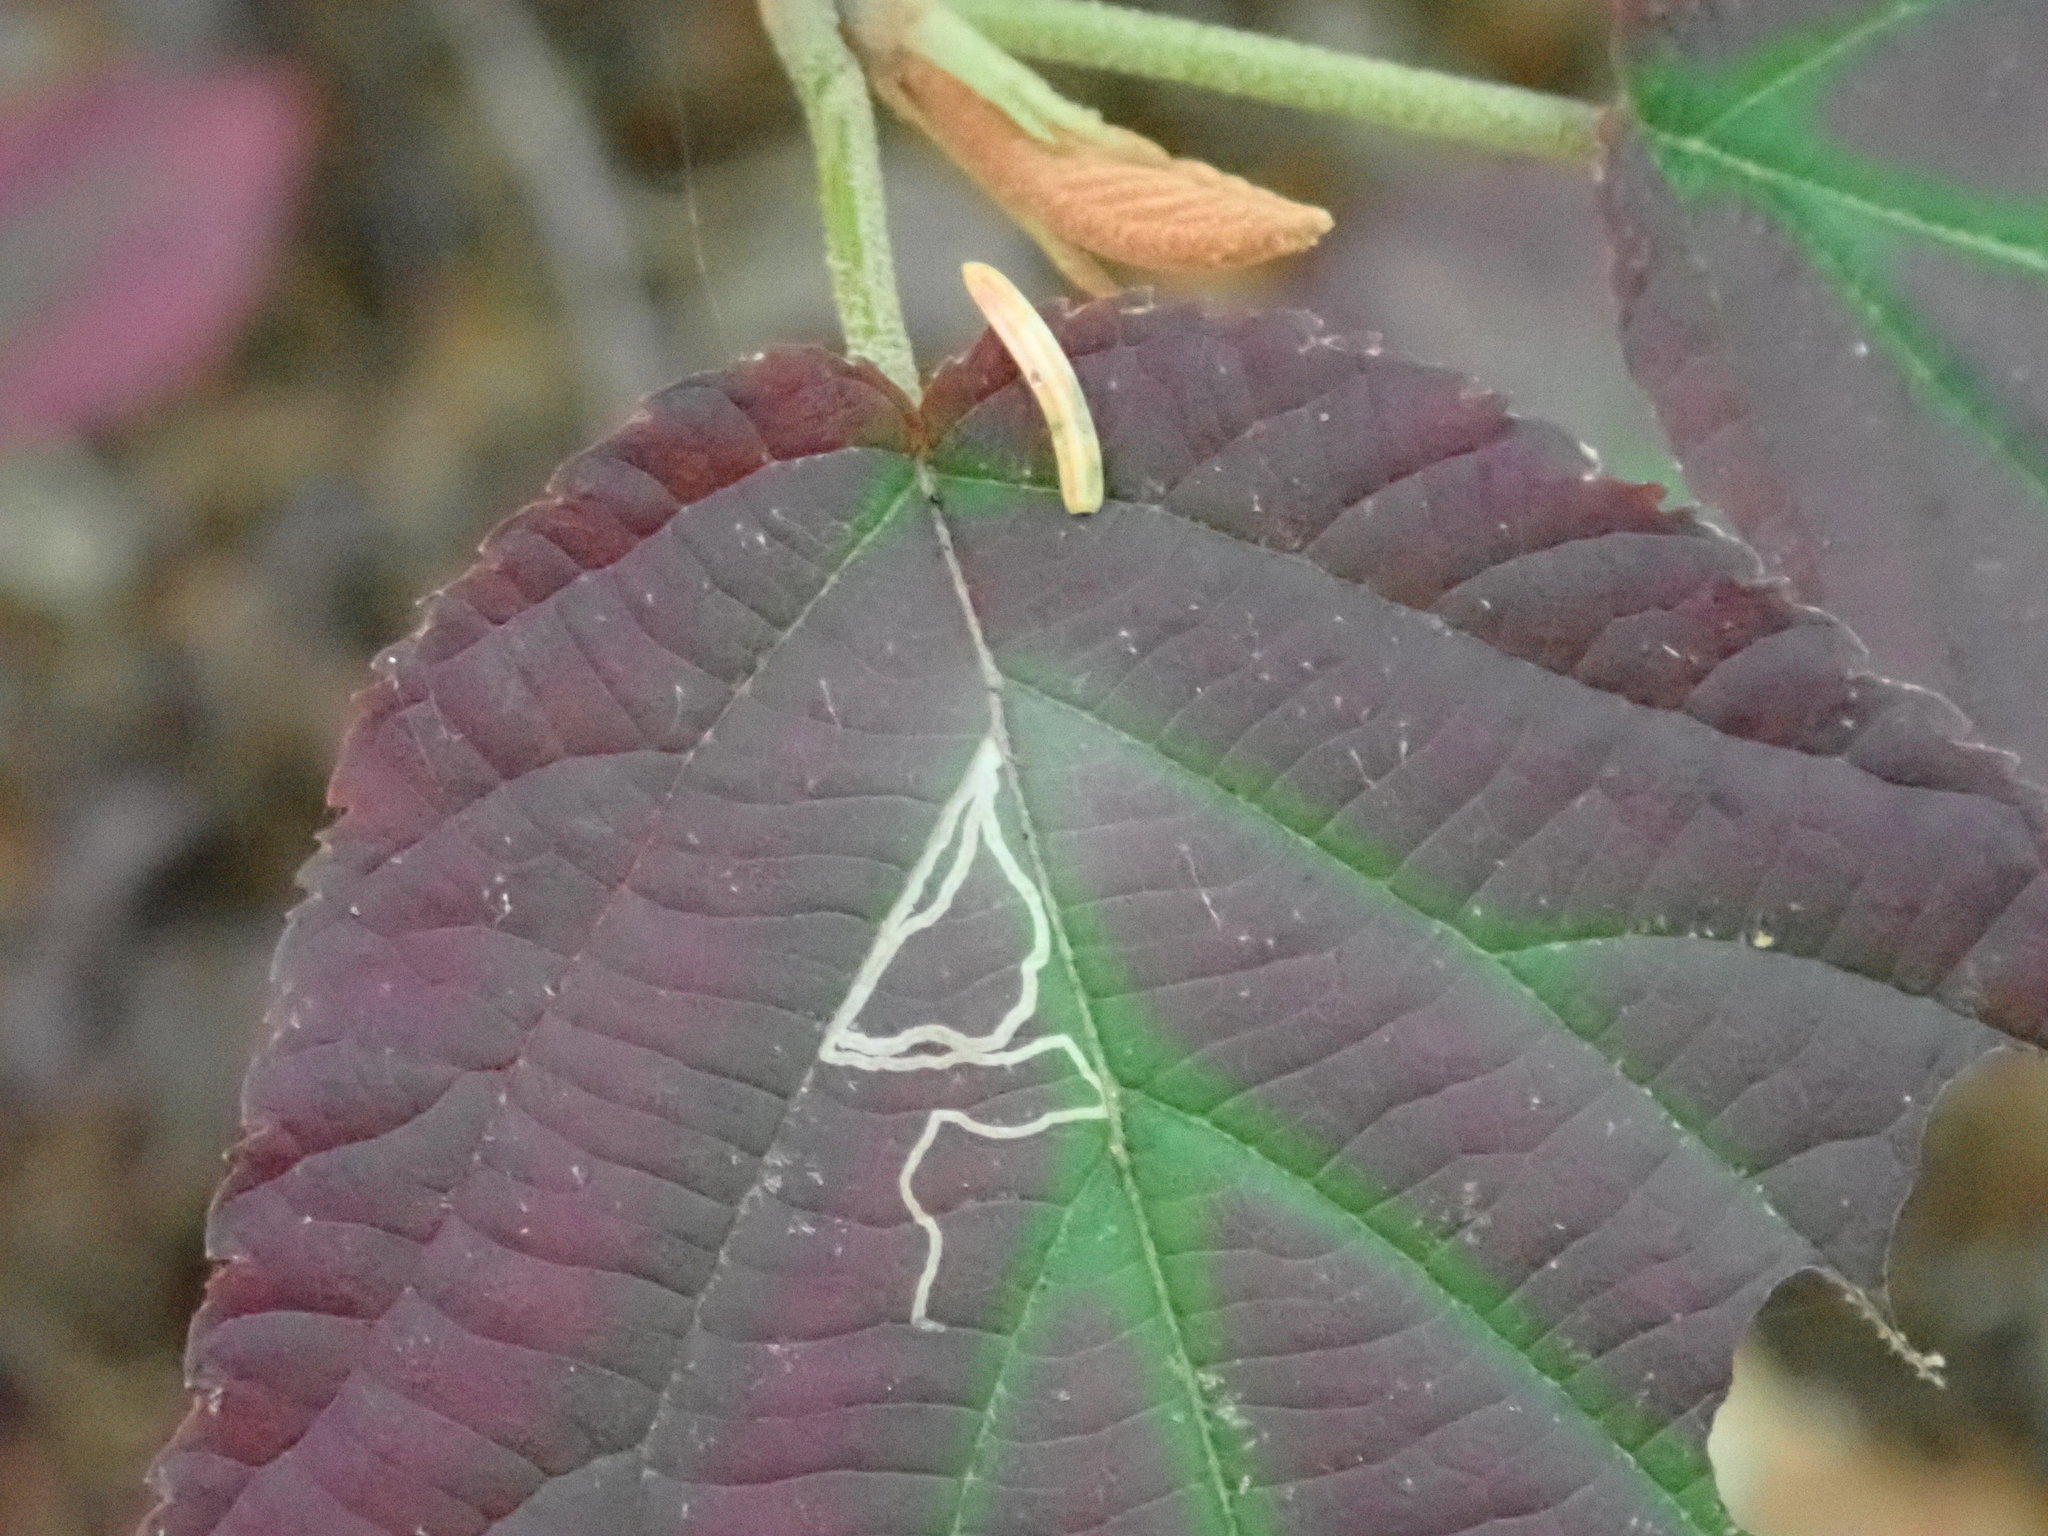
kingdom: Animalia
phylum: Arthropoda
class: Insecta
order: Lepidoptera
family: Gracillariidae
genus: Marmara
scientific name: Marmara viburnella
